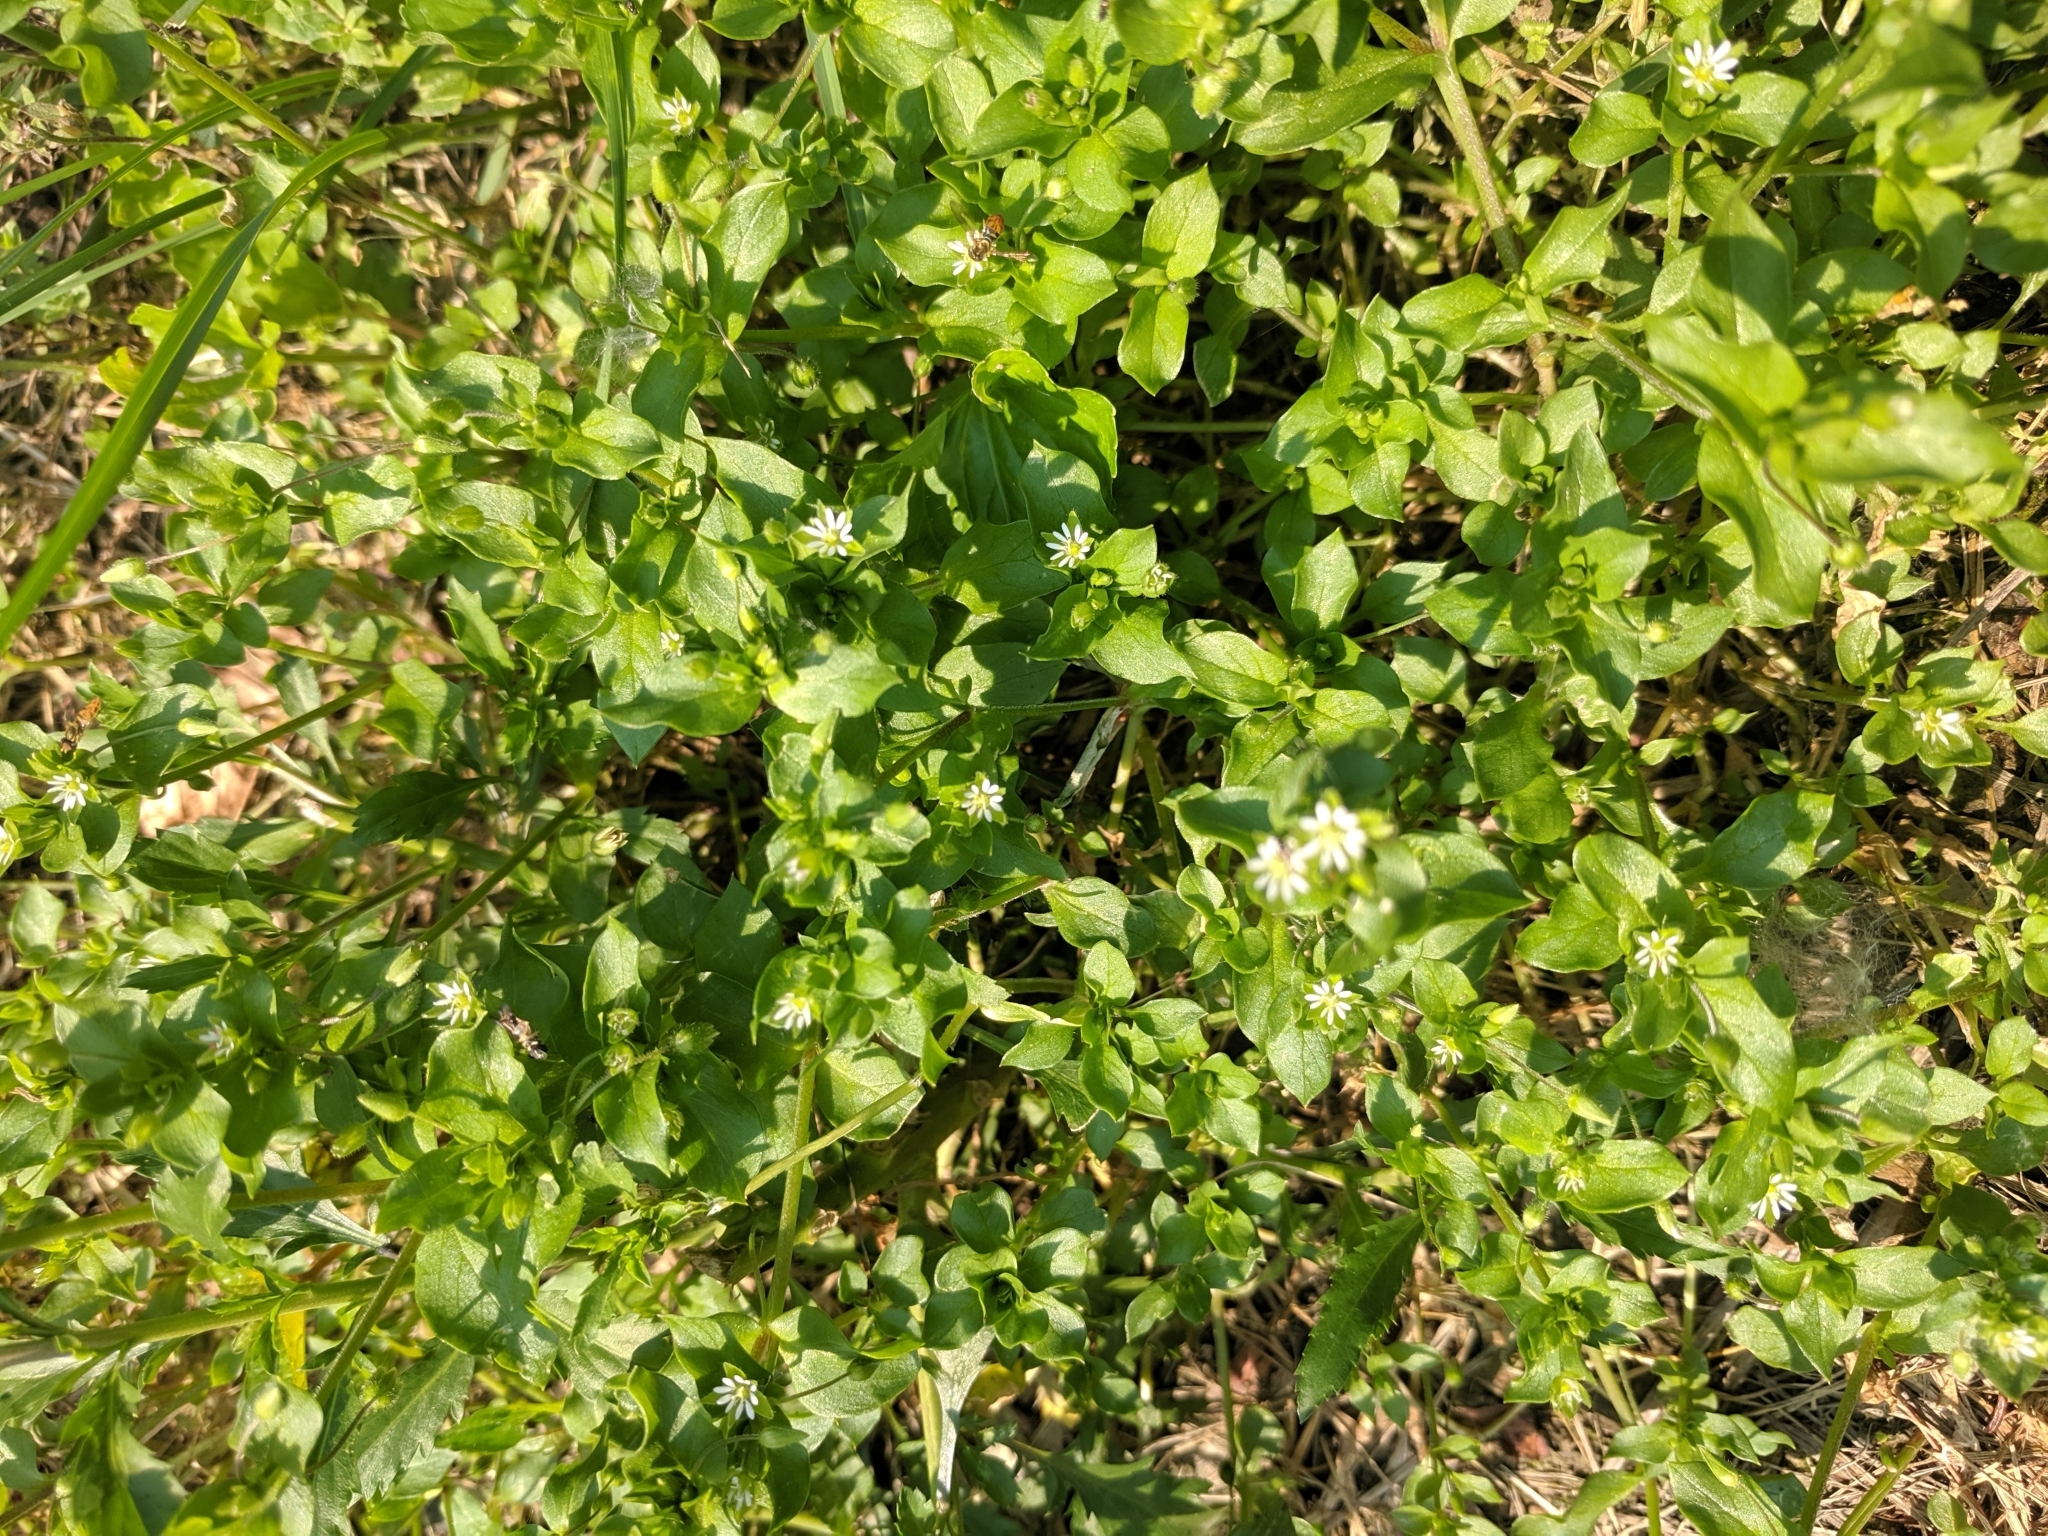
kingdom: Plantae
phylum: Tracheophyta
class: Magnoliopsida
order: Caryophyllales
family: Caryophyllaceae
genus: Stellaria
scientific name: Stellaria media
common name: Common chickweed
